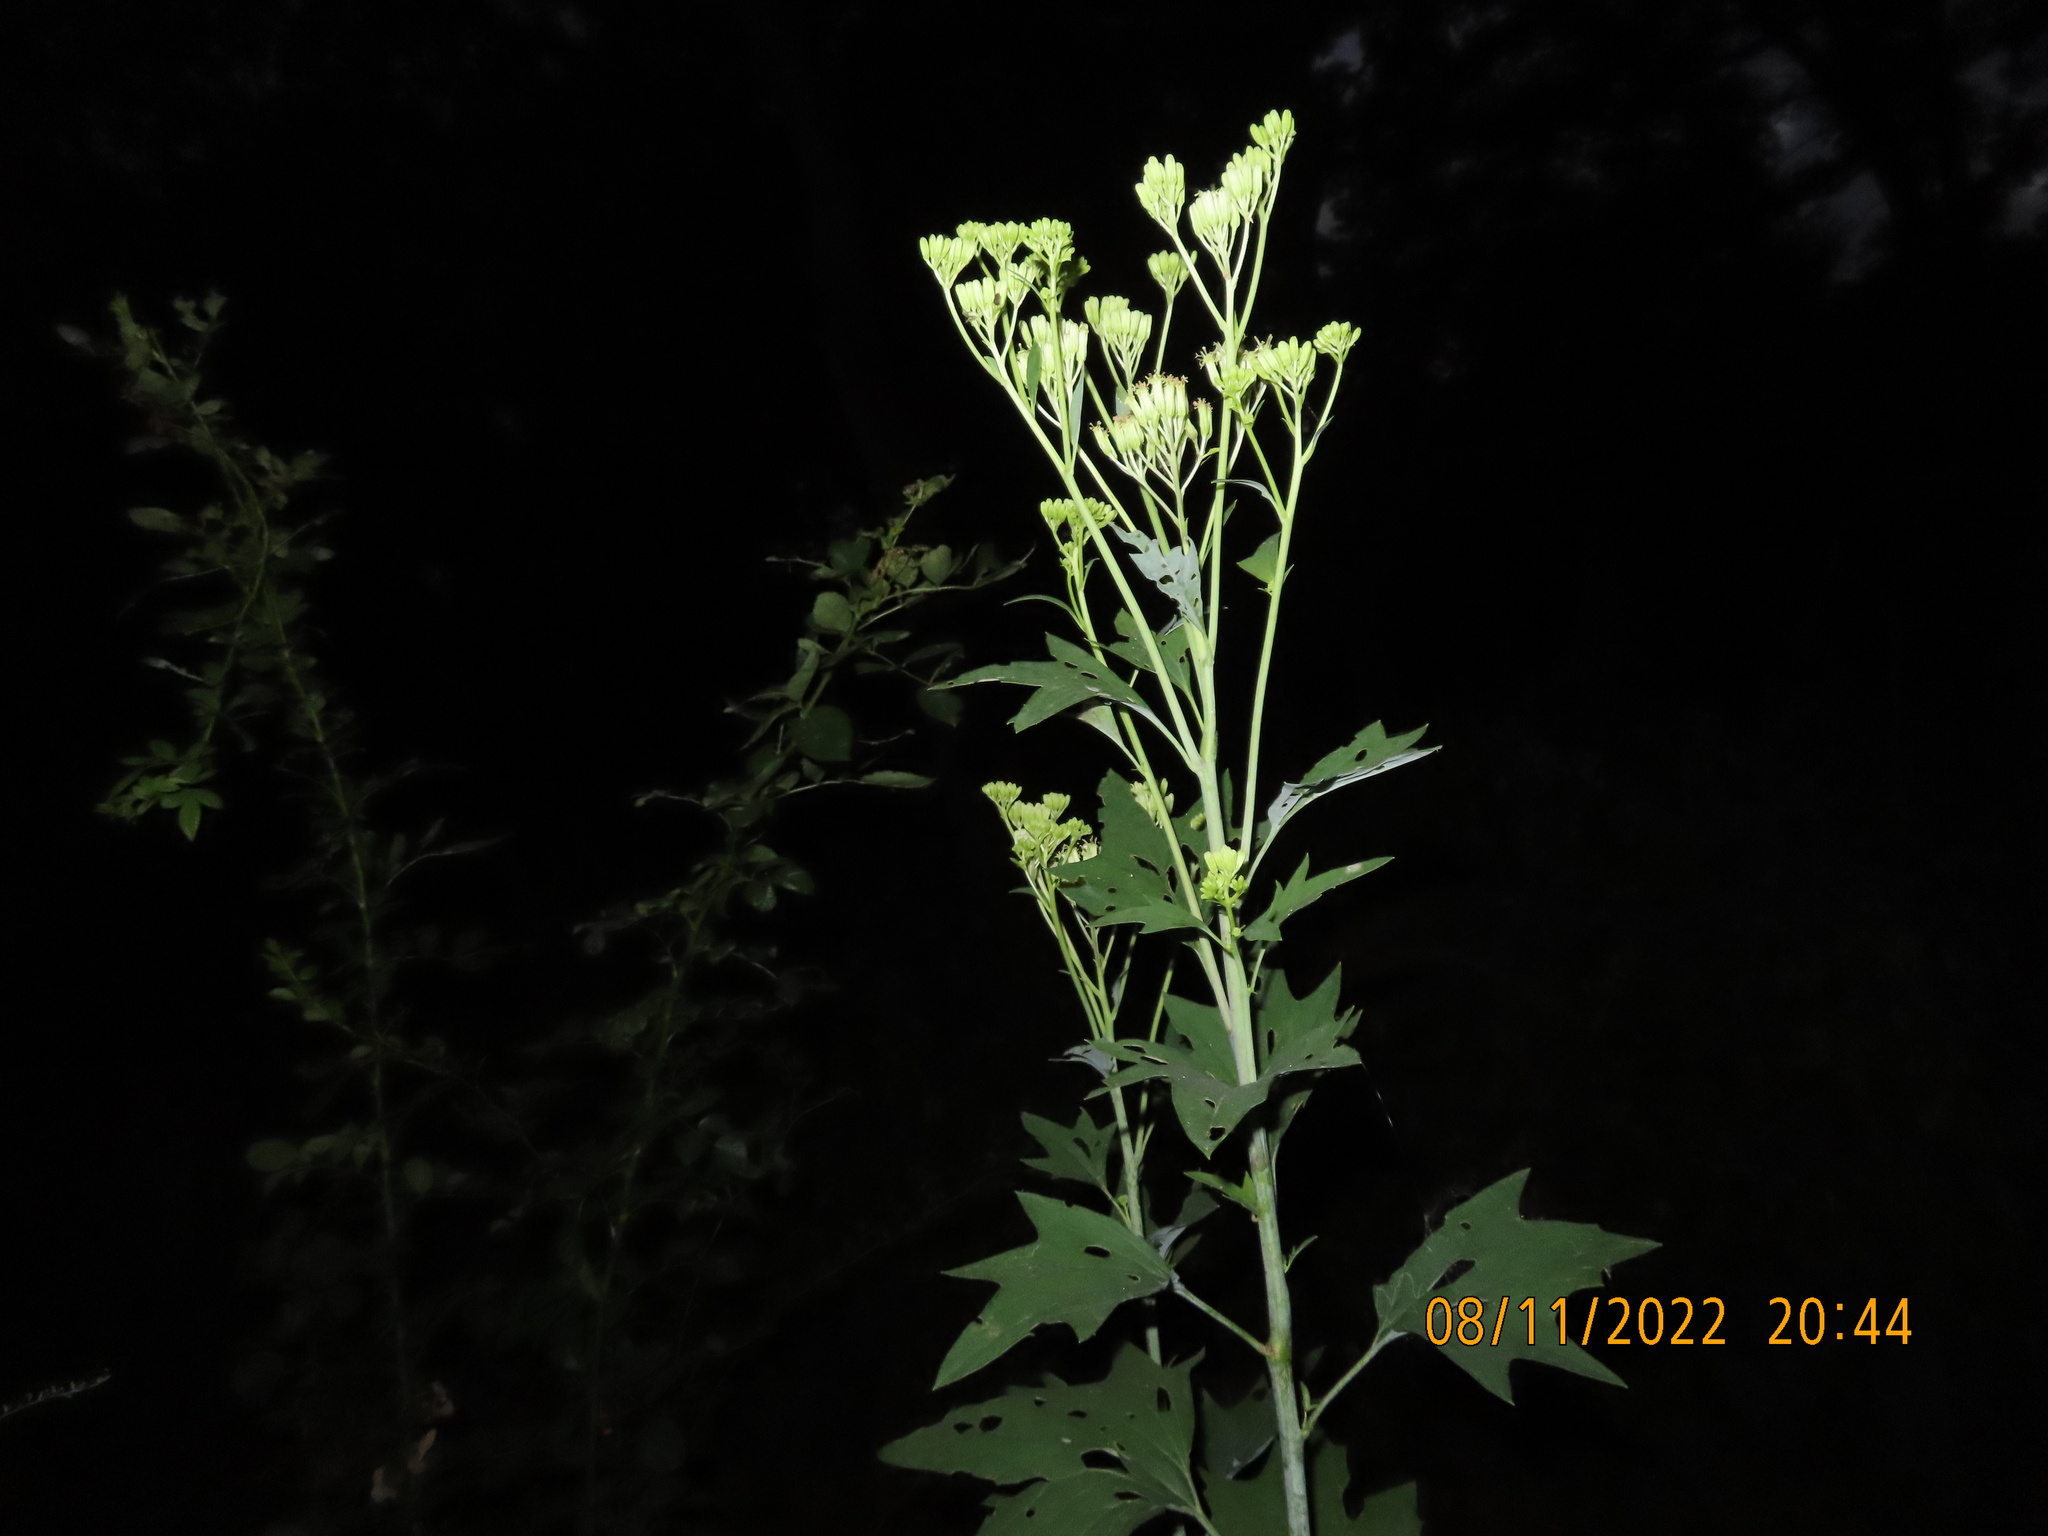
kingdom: Plantae
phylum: Tracheophyta
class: Magnoliopsida
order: Asterales
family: Asteraceae
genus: Arnoglossum
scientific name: Arnoglossum atriplicifolium
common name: Pale indian-plantain
